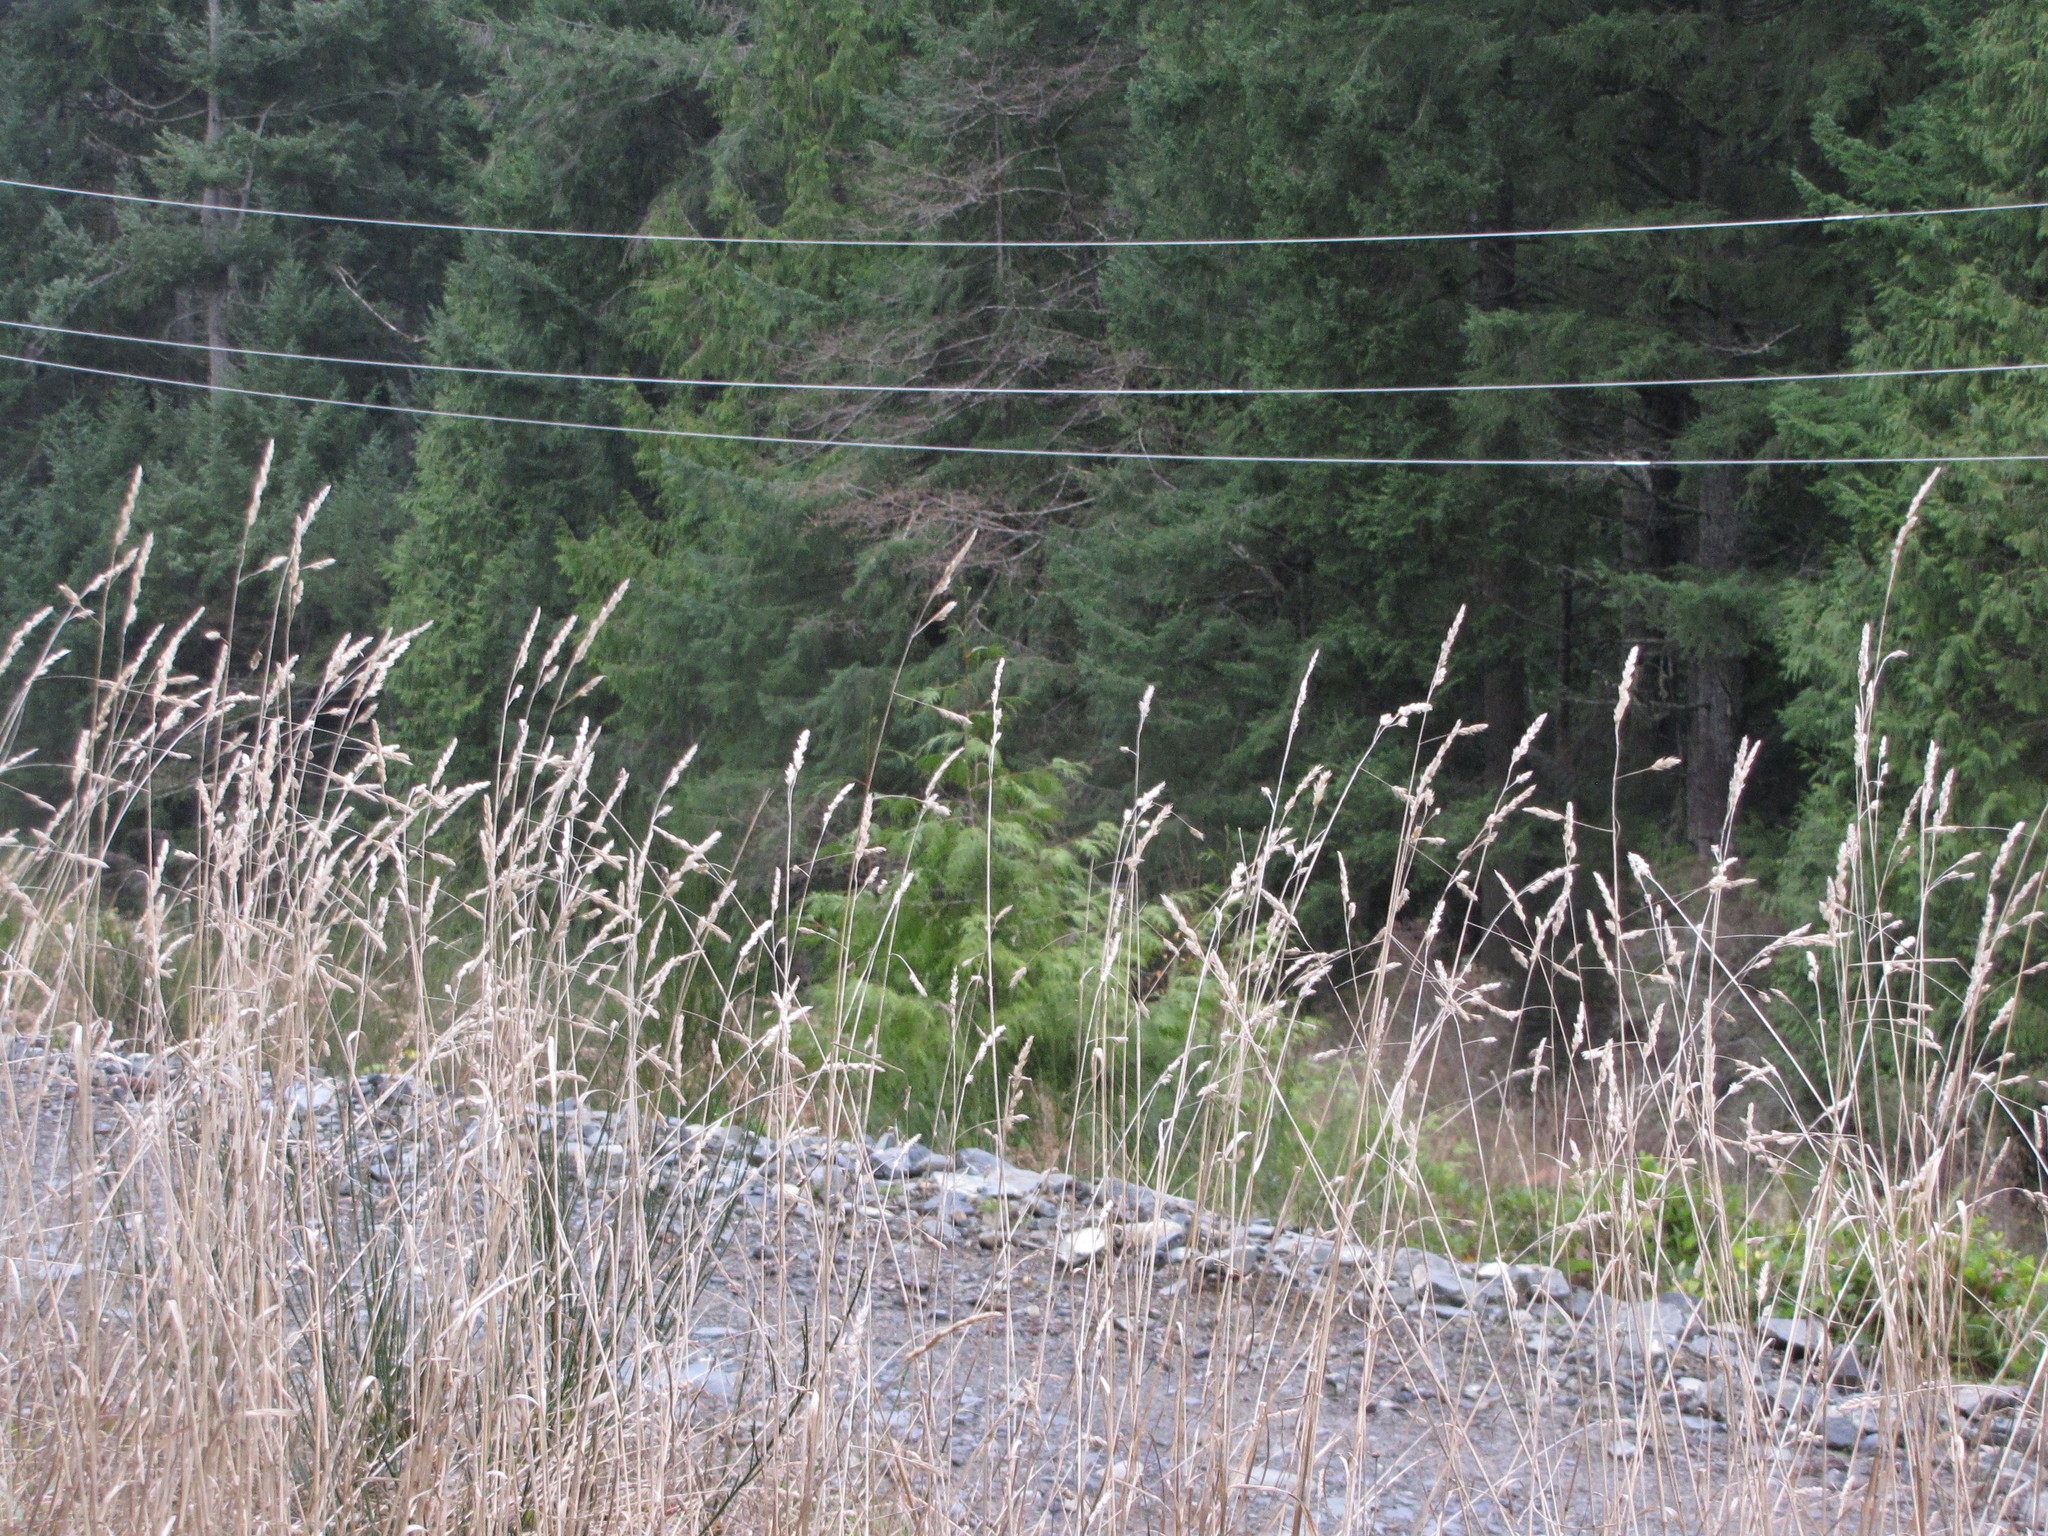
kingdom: Plantae
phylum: Tracheophyta
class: Liliopsida
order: Poales
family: Poaceae
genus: Dactylis
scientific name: Dactylis glomerata
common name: Orchardgrass
